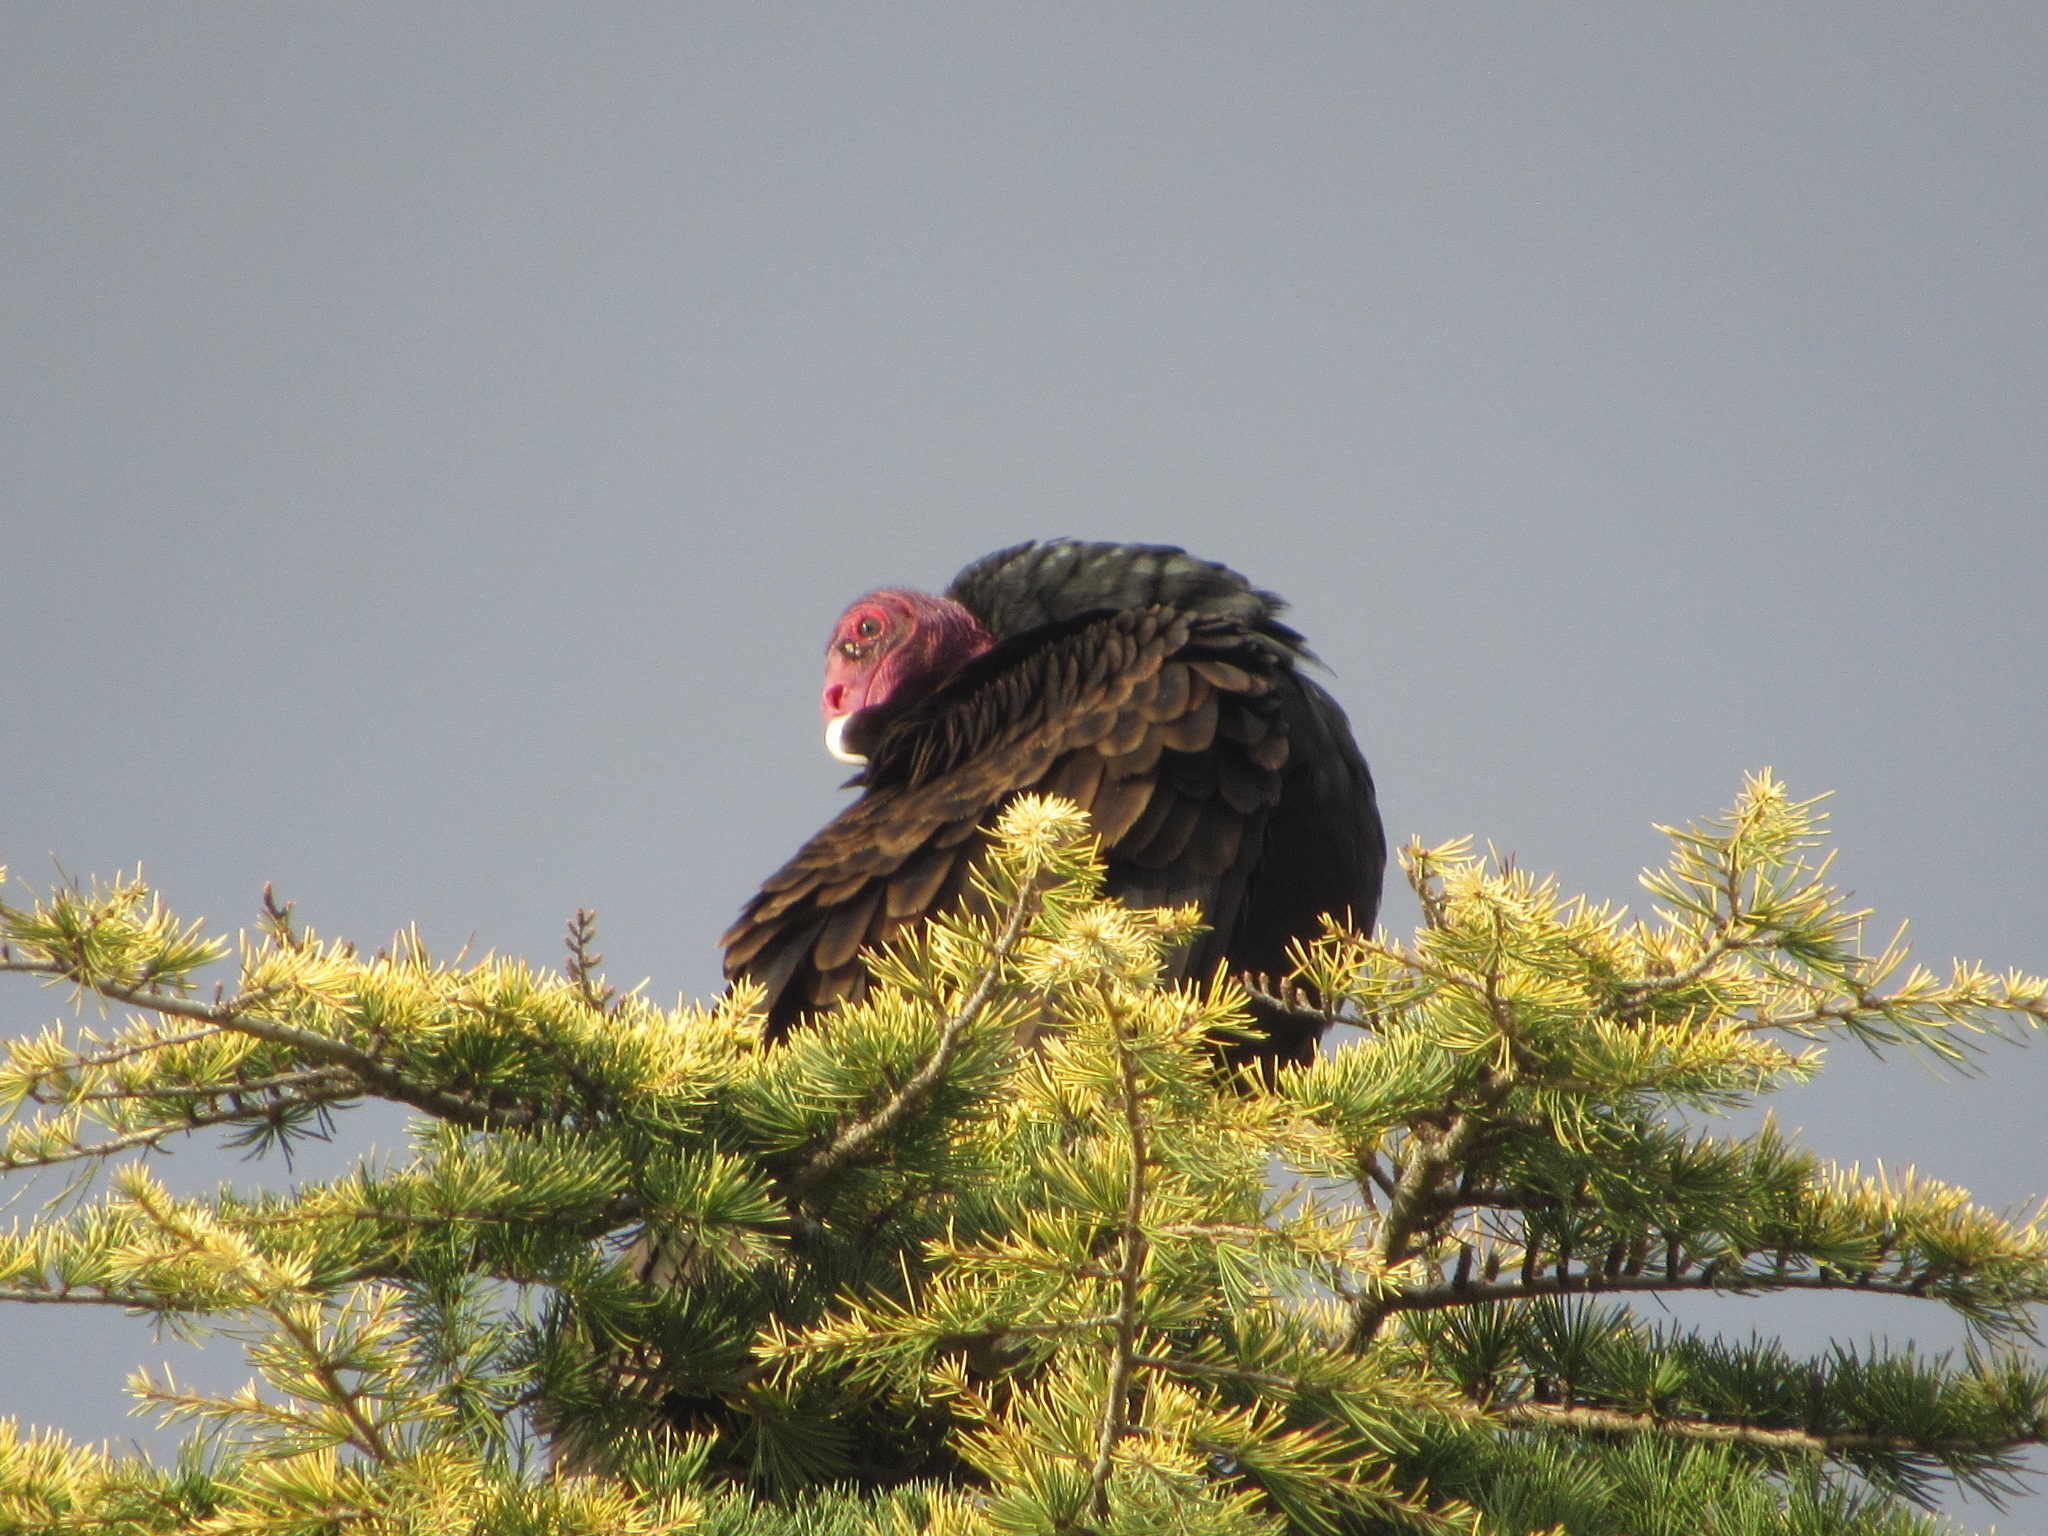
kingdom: Animalia
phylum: Chordata
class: Aves
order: Accipitriformes
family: Cathartidae
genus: Cathartes
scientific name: Cathartes aura
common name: Turkey vulture
